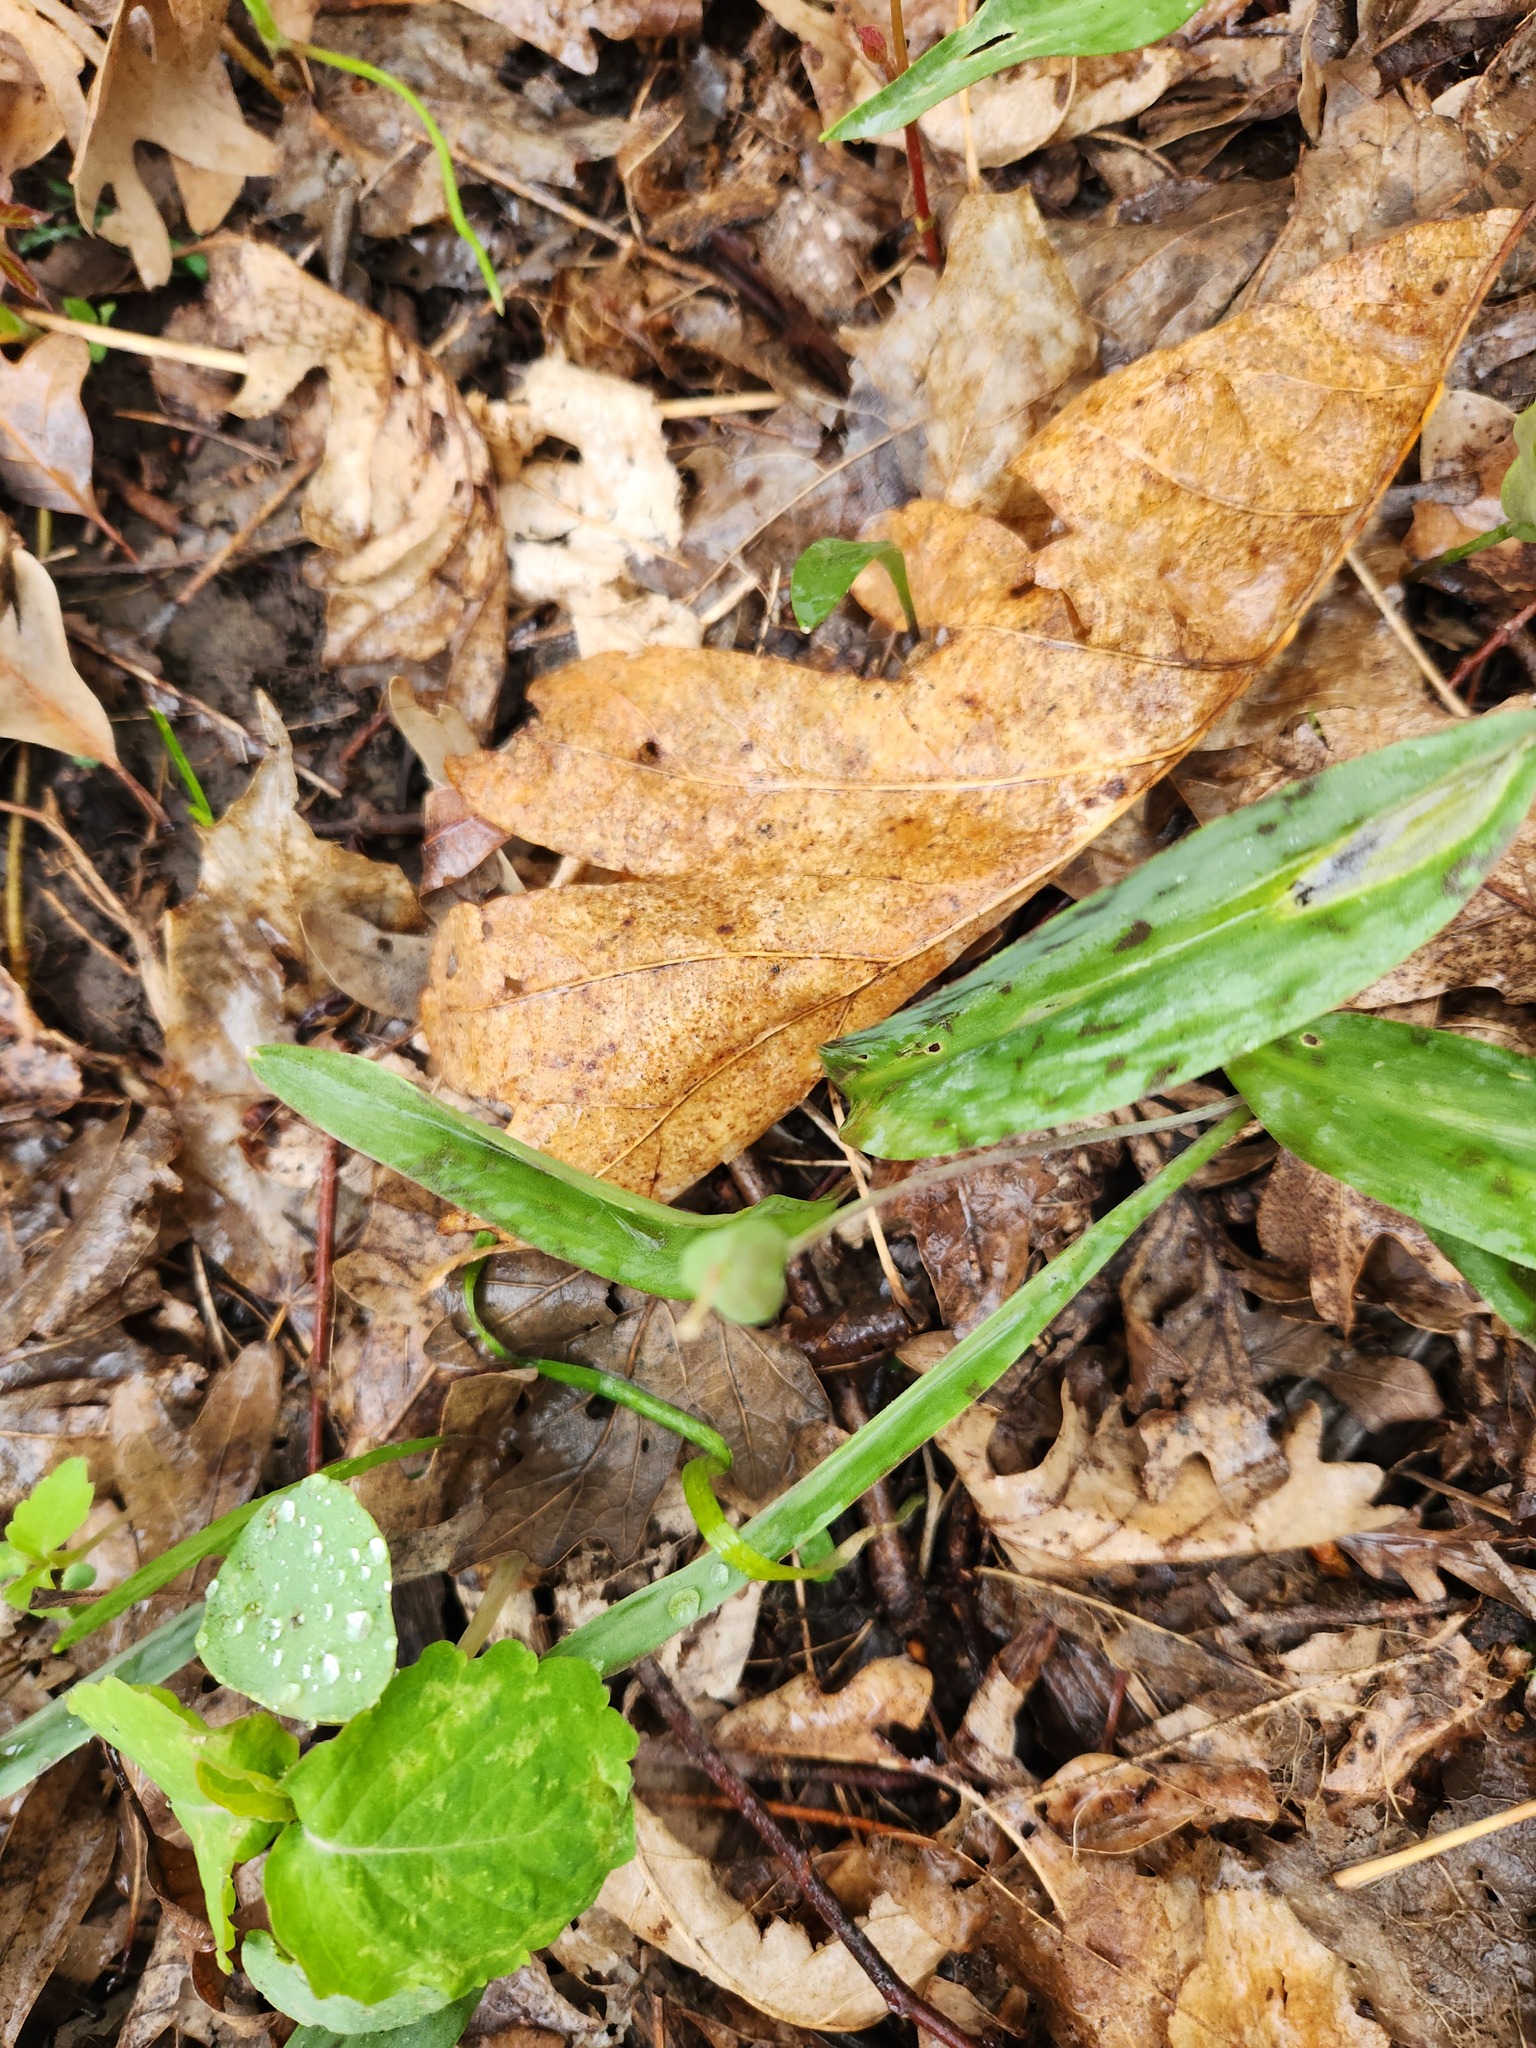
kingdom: Plantae
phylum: Tracheophyta
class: Liliopsida
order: Liliales
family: Liliaceae
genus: Erythronium
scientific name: Erythronium albidum
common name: White trout-lily
